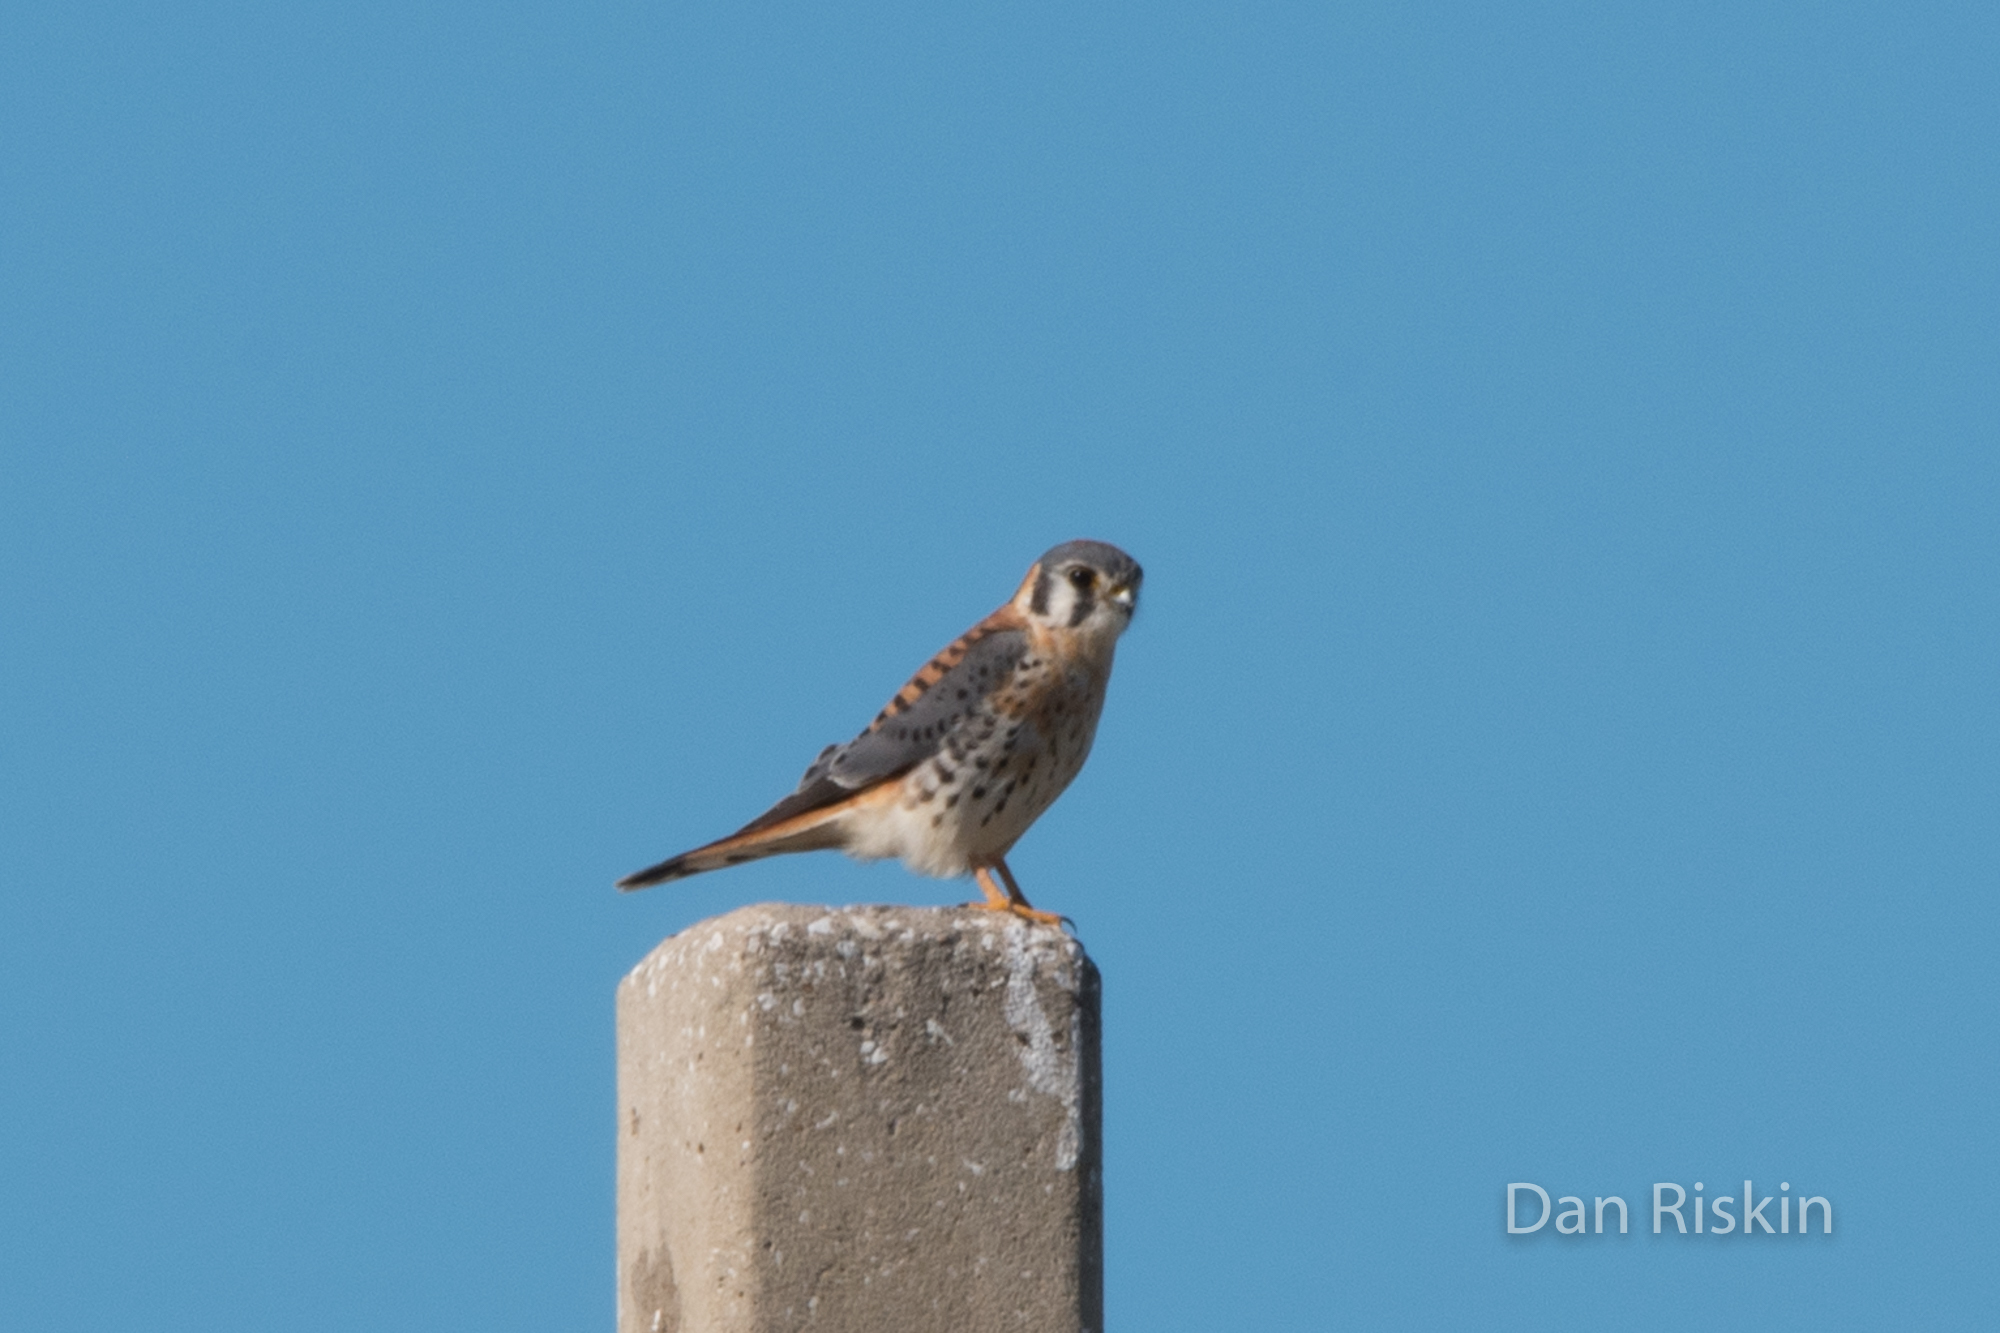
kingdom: Animalia
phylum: Chordata
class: Aves
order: Falconiformes
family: Falconidae
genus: Falco
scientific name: Falco sparverius
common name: American kestrel
